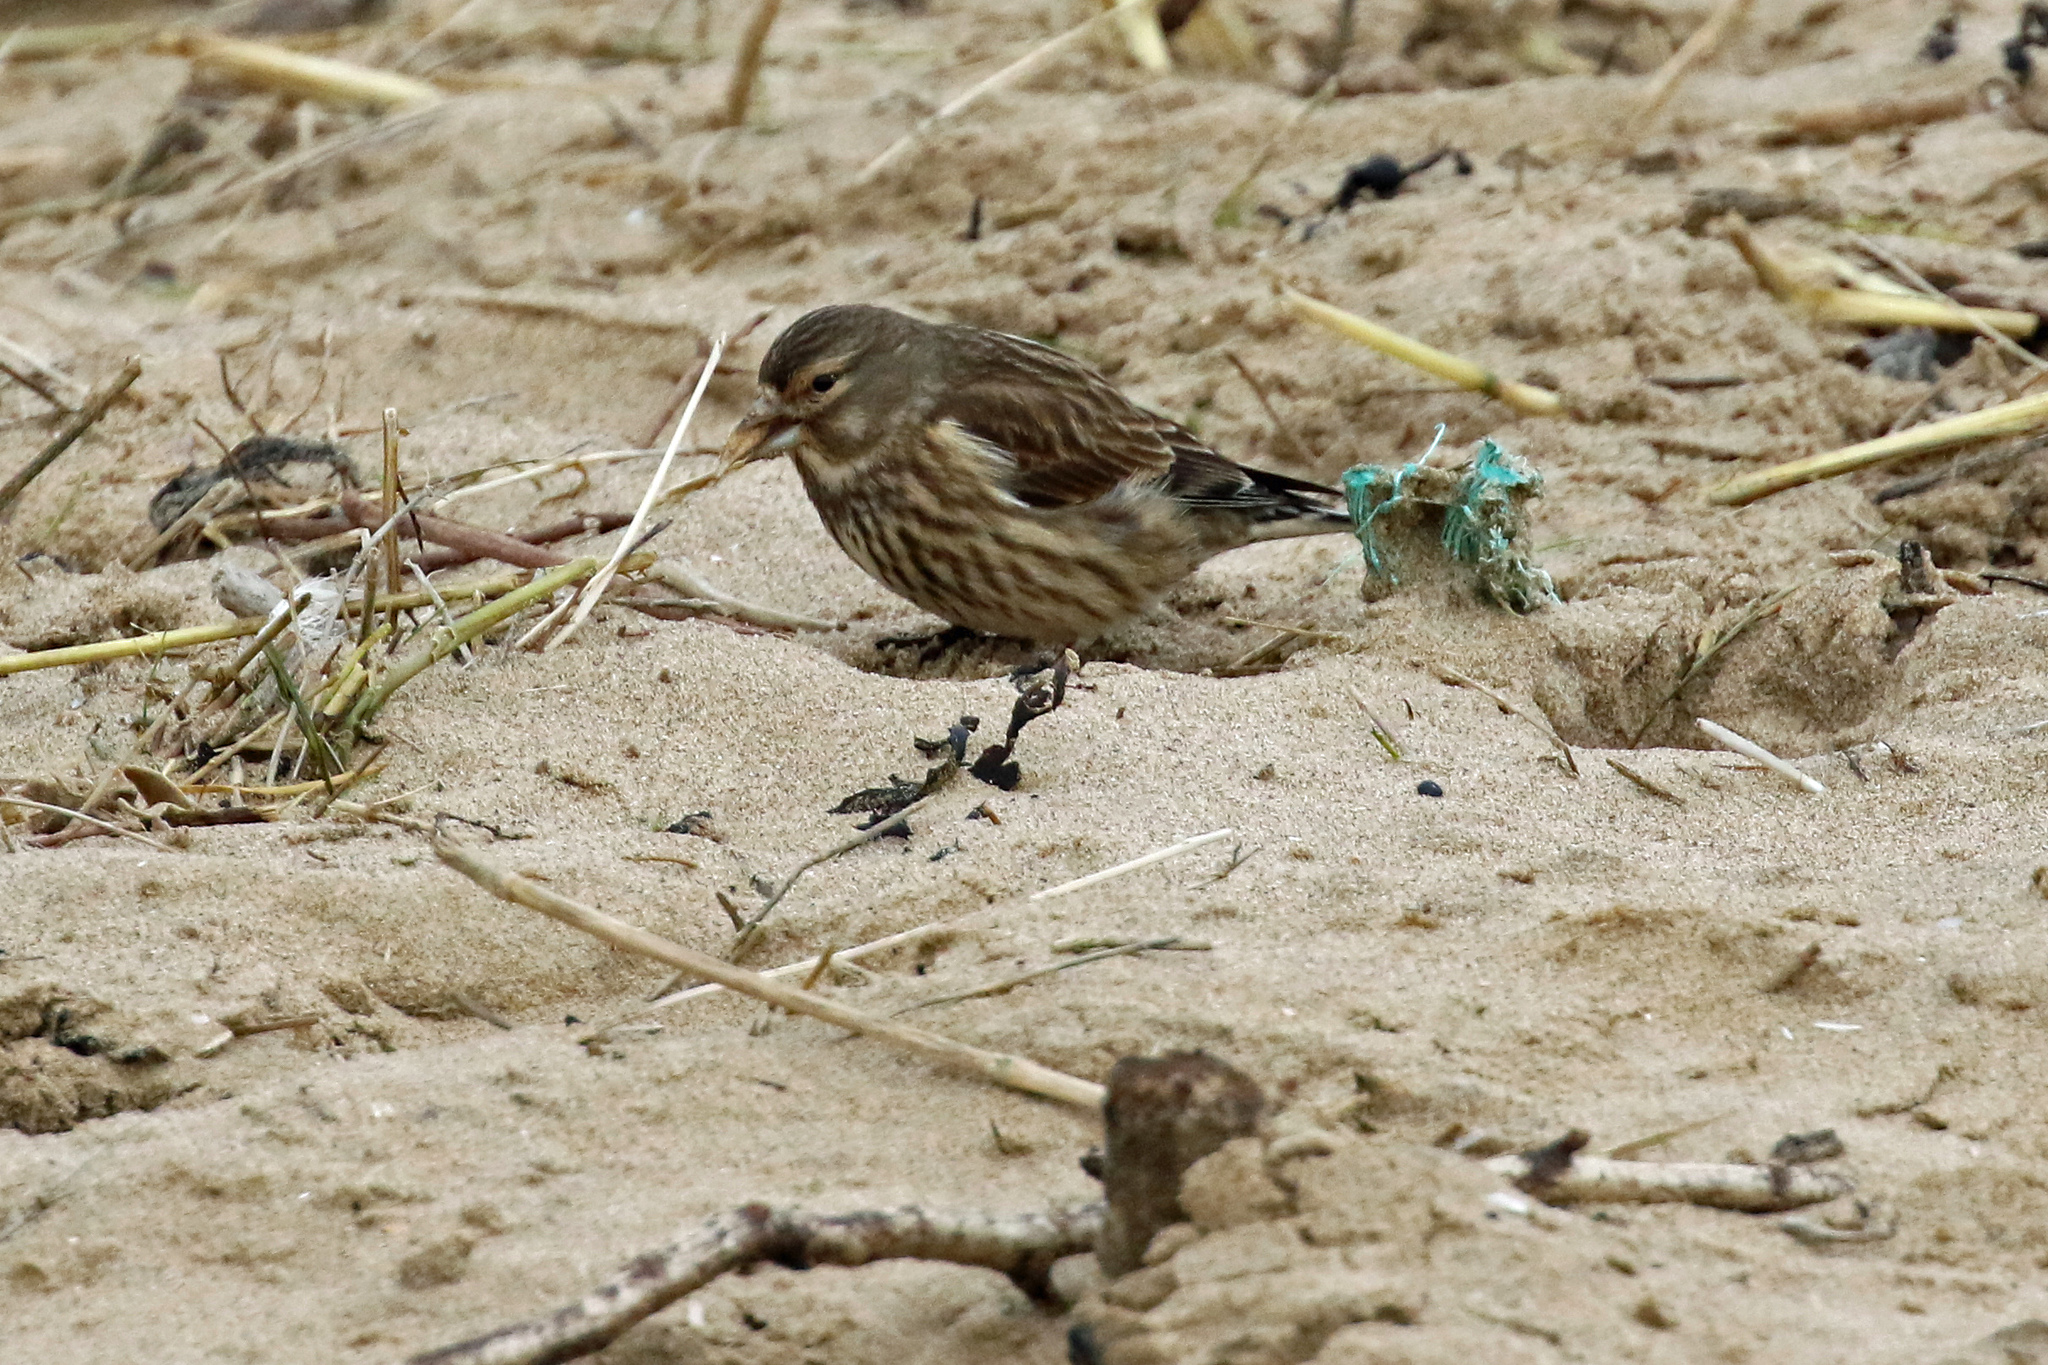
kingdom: Animalia
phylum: Chordata
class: Aves
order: Passeriformes
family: Fringillidae
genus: Linaria
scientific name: Linaria cannabina
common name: Common linnet
